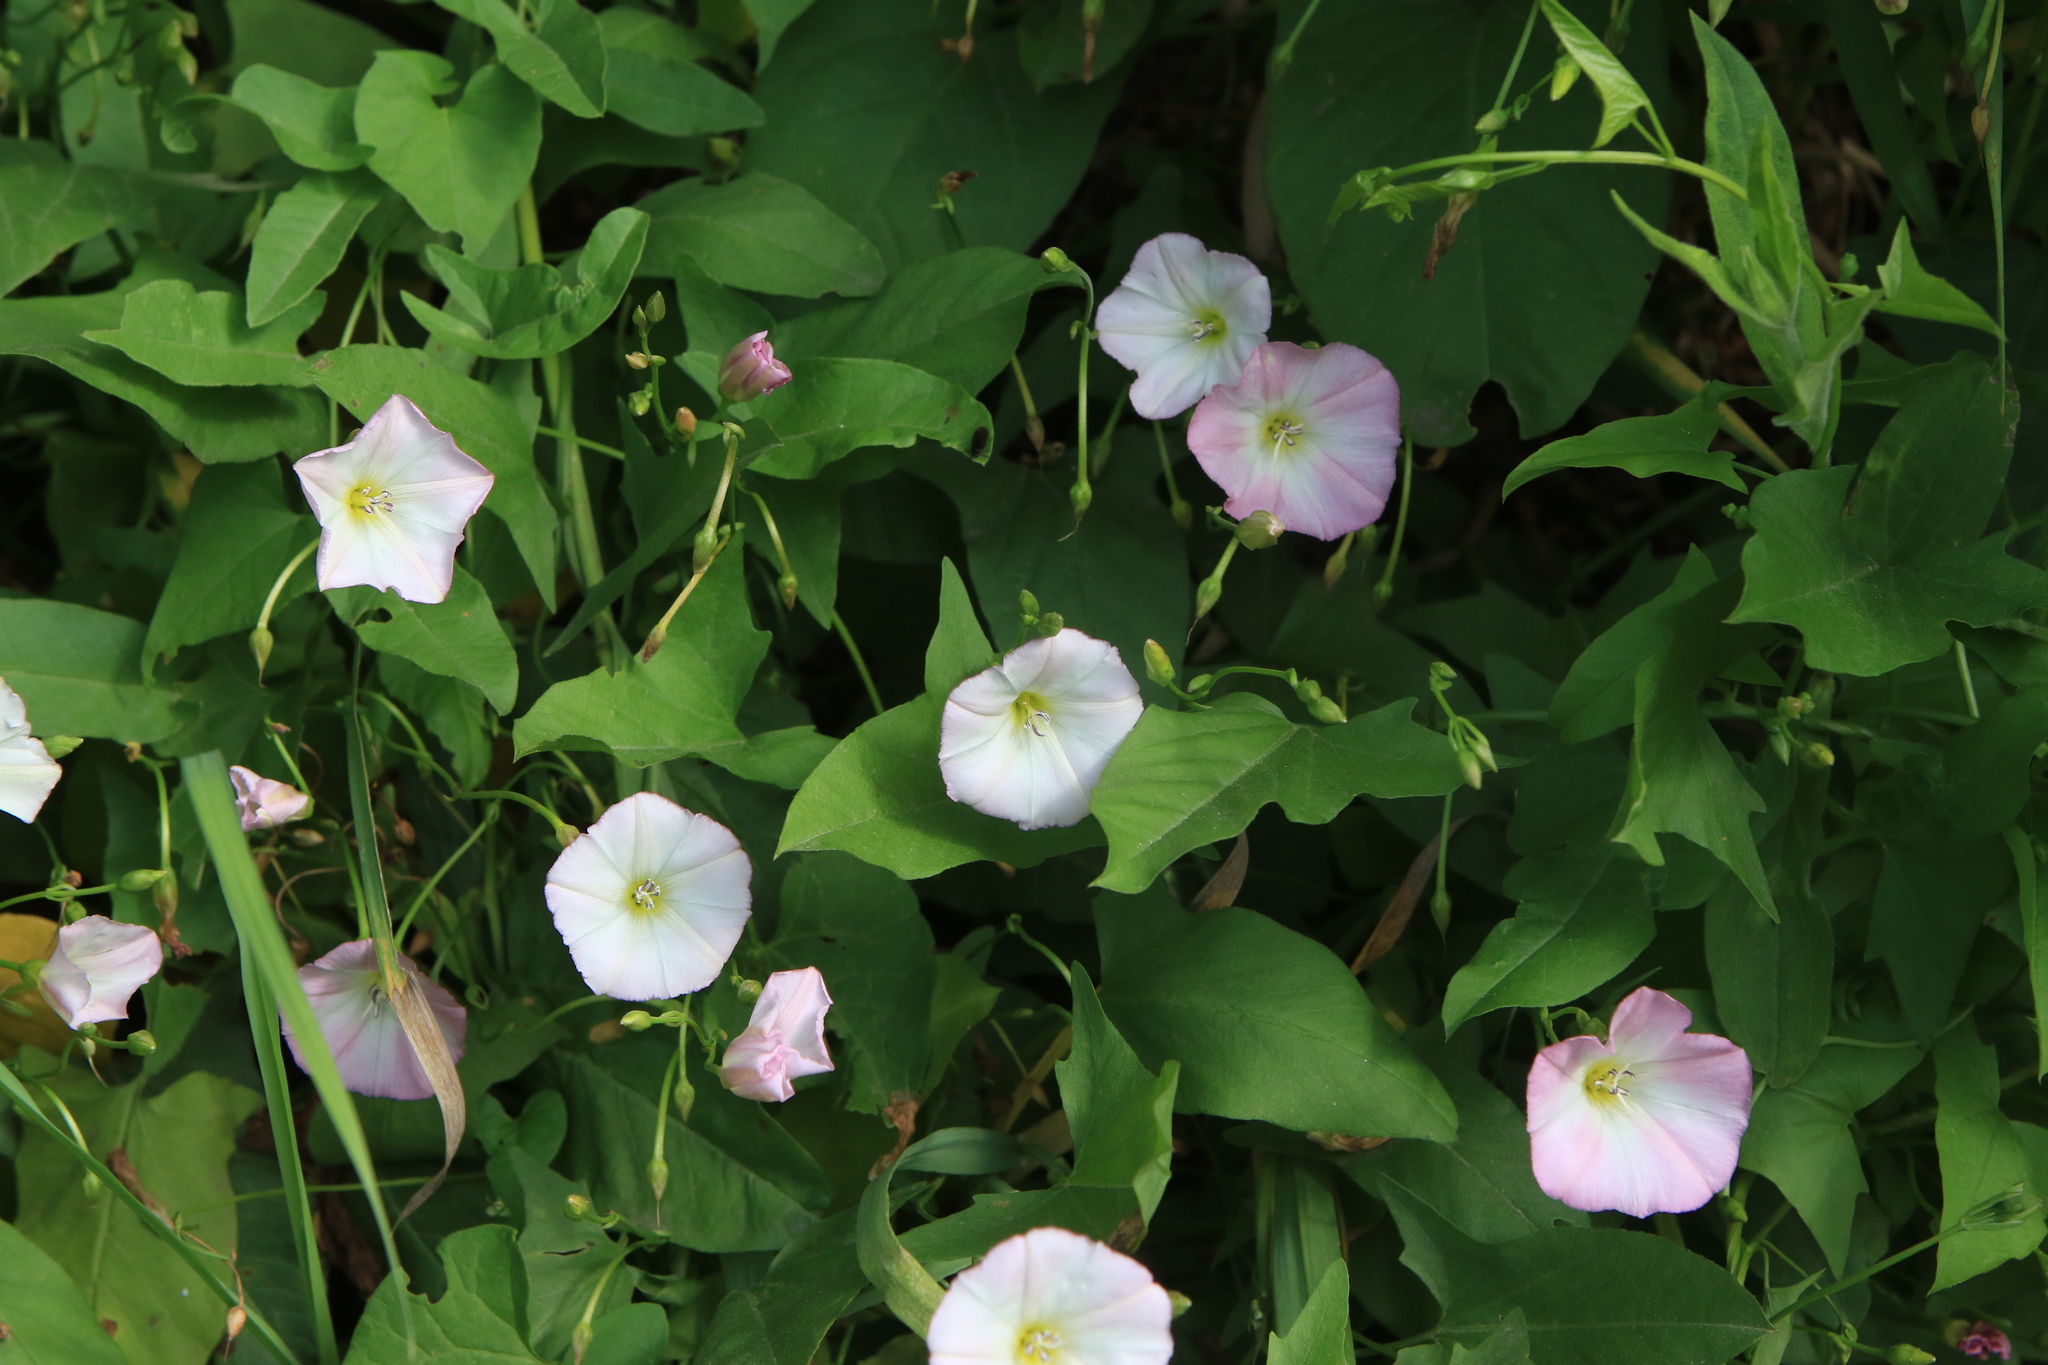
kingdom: Plantae
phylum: Tracheophyta
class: Magnoliopsida
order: Solanales
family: Convolvulaceae
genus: Convolvulus
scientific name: Convolvulus arvensis
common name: Field bindweed
